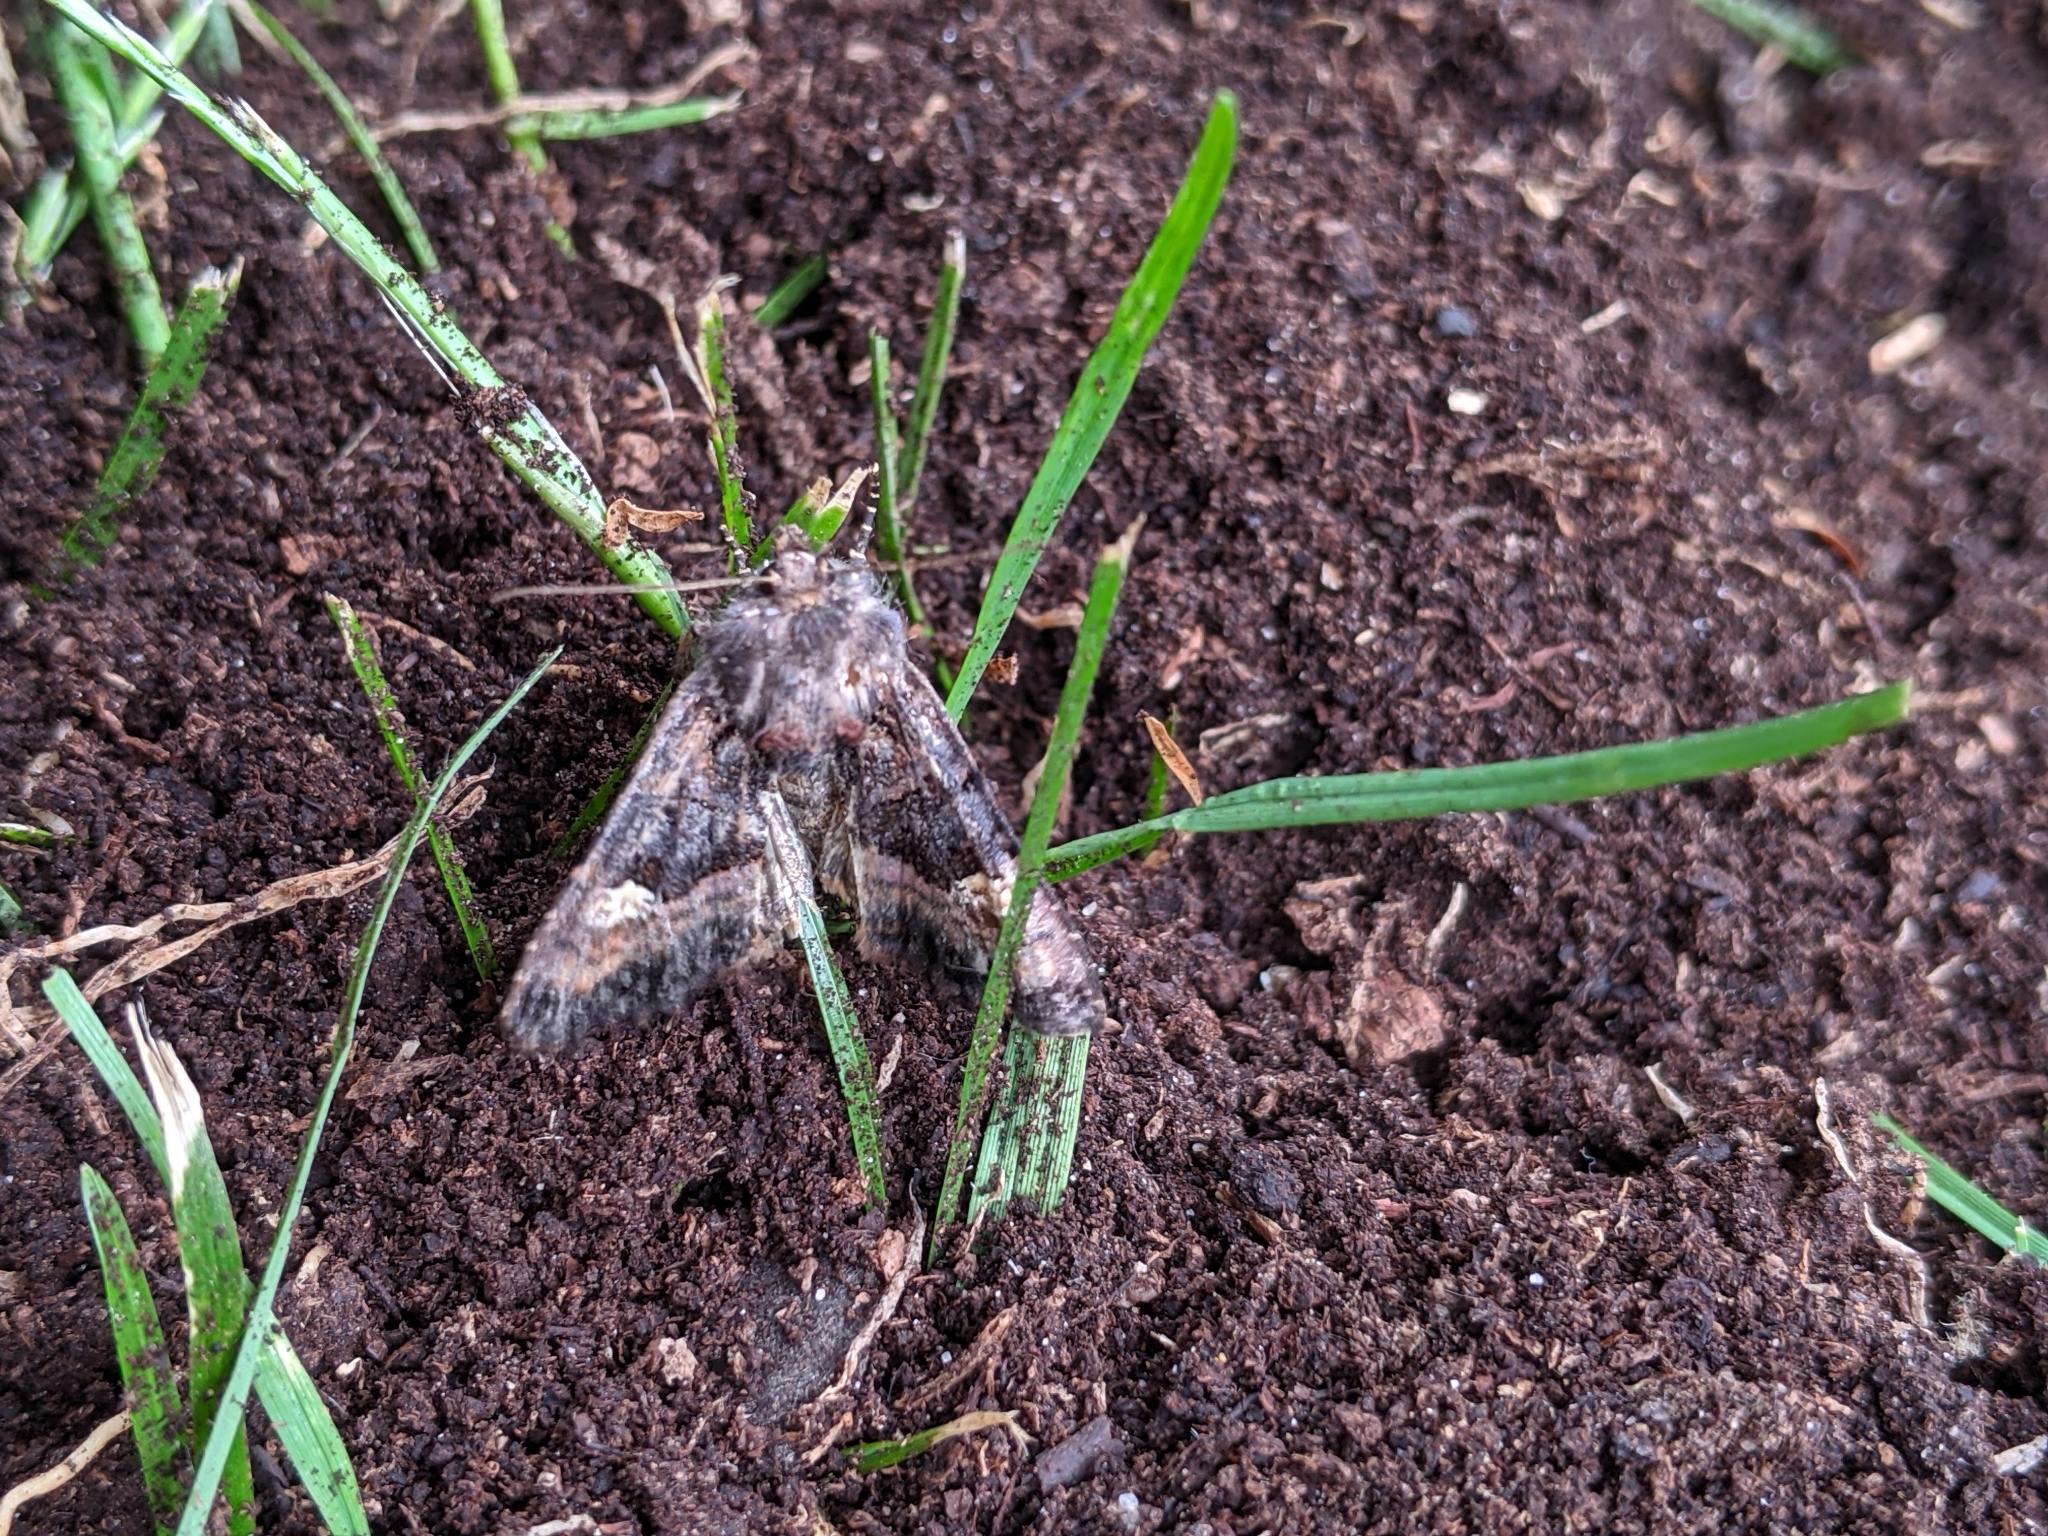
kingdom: Animalia
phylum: Arthropoda
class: Insecta
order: Lepidoptera
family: Noctuidae
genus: Euplexia
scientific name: Euplexia lucipara
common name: Small angle shades
